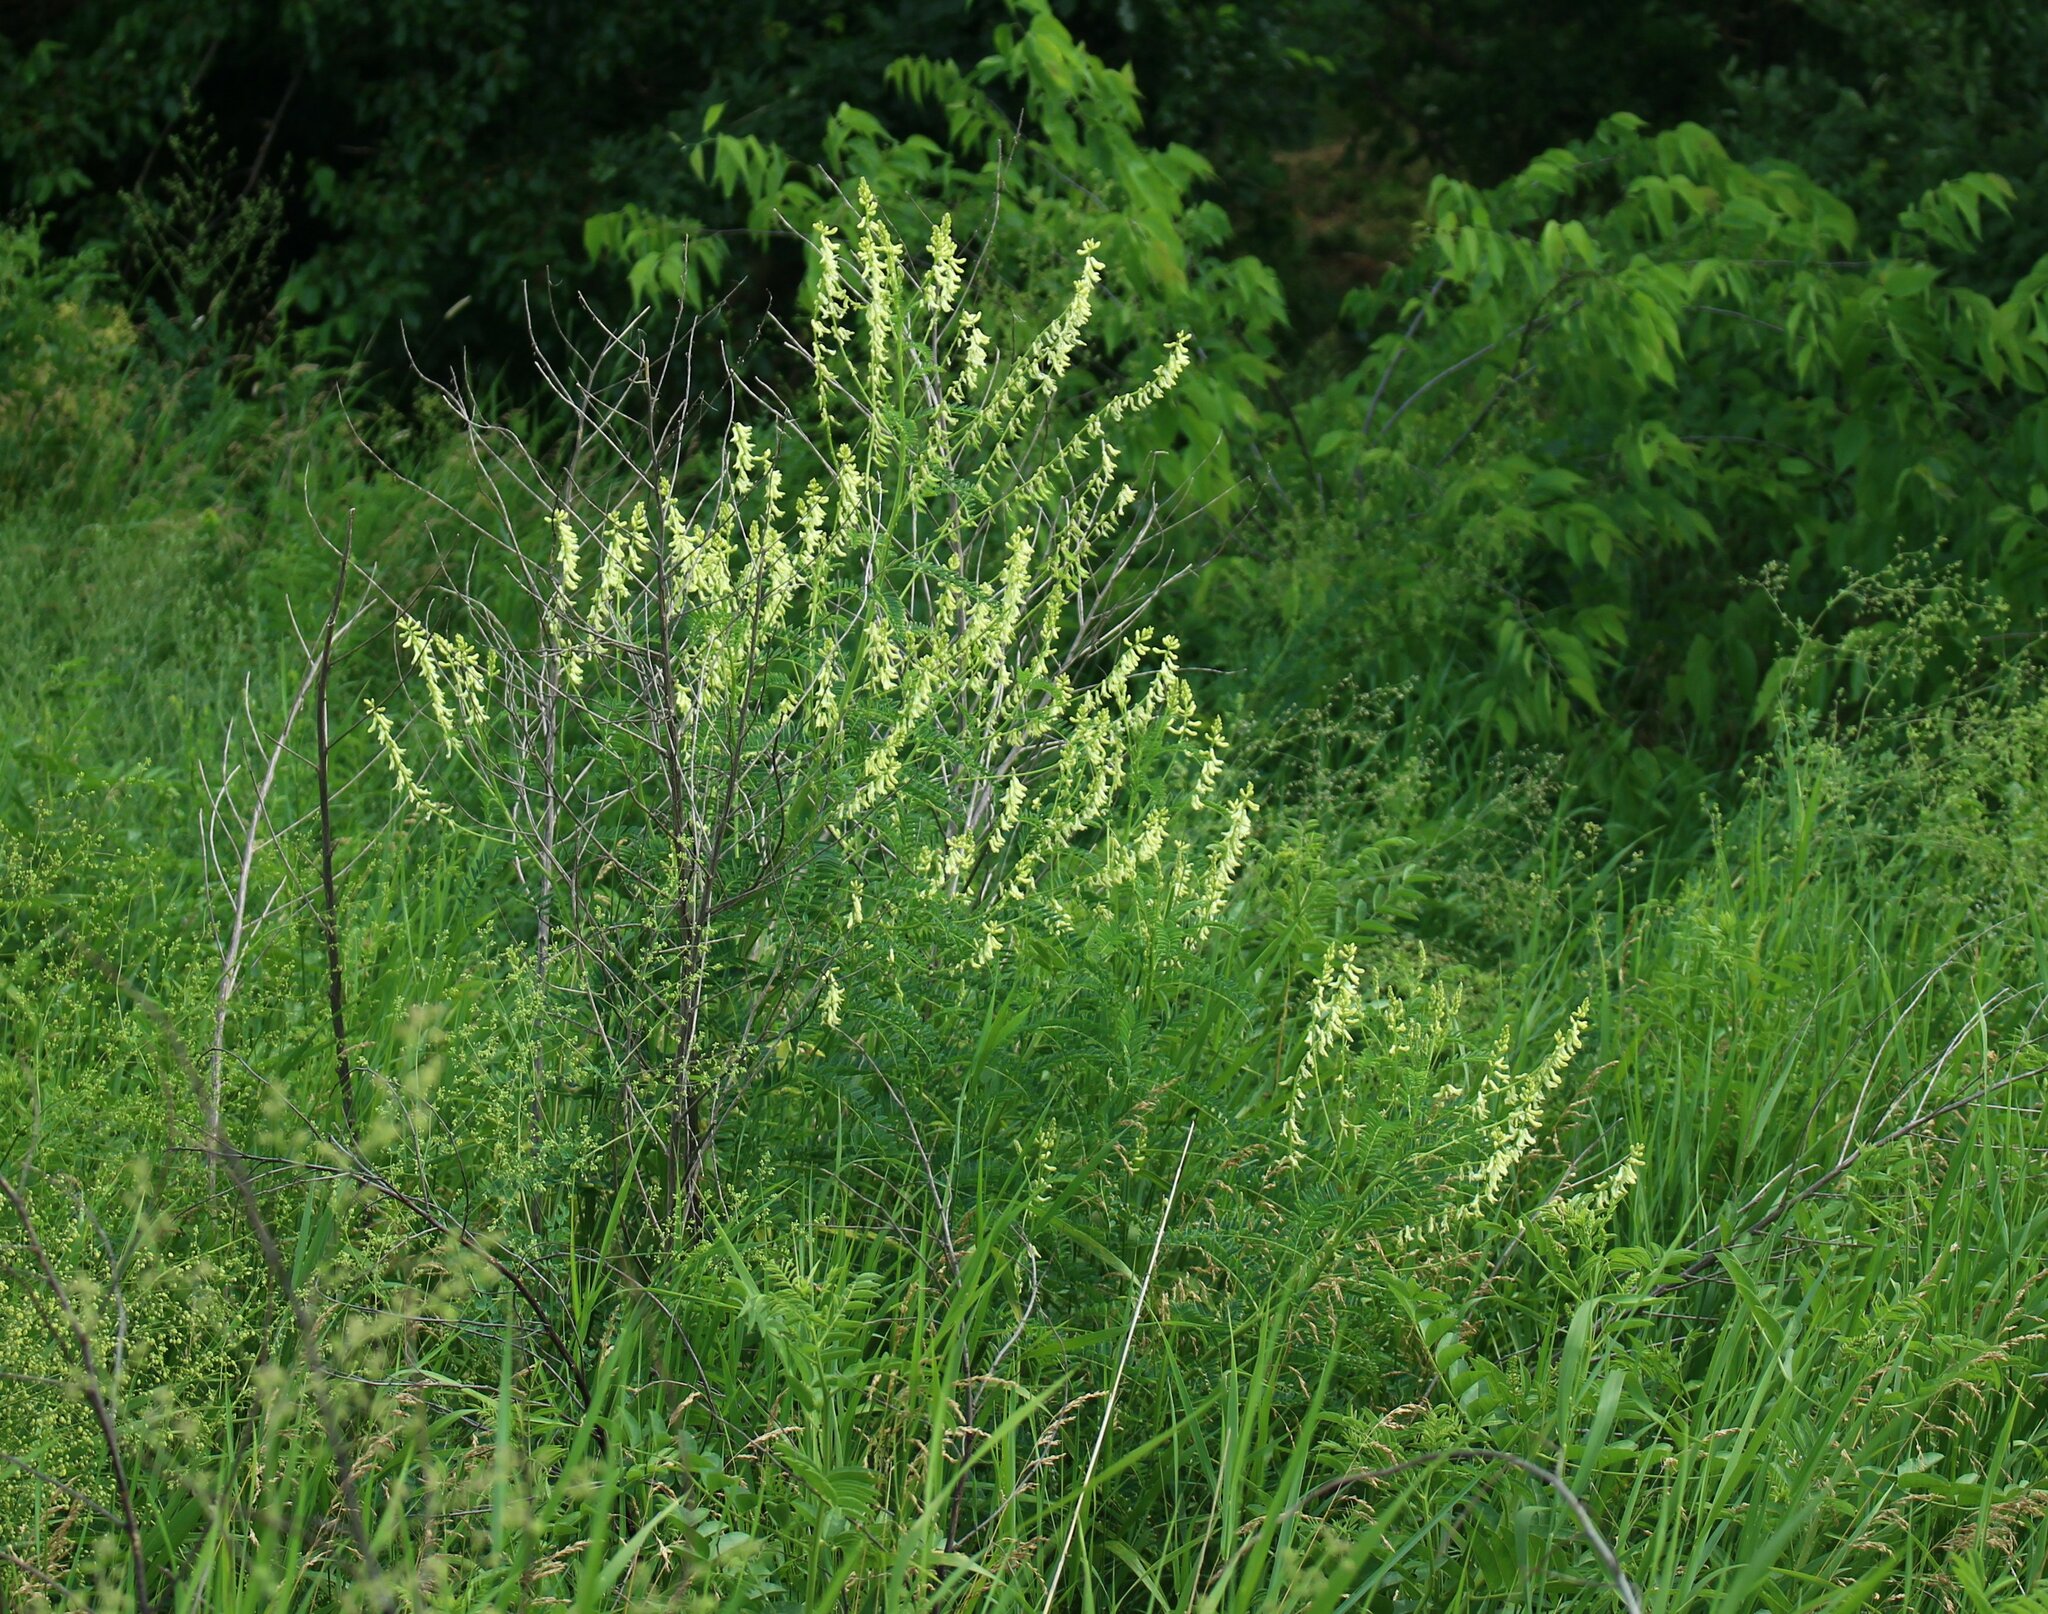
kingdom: Plantae
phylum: Tracheophyta
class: Magnoliopsida
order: Fabales
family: Fabaceae
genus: Astragalus
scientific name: Astragalus galegiformis
